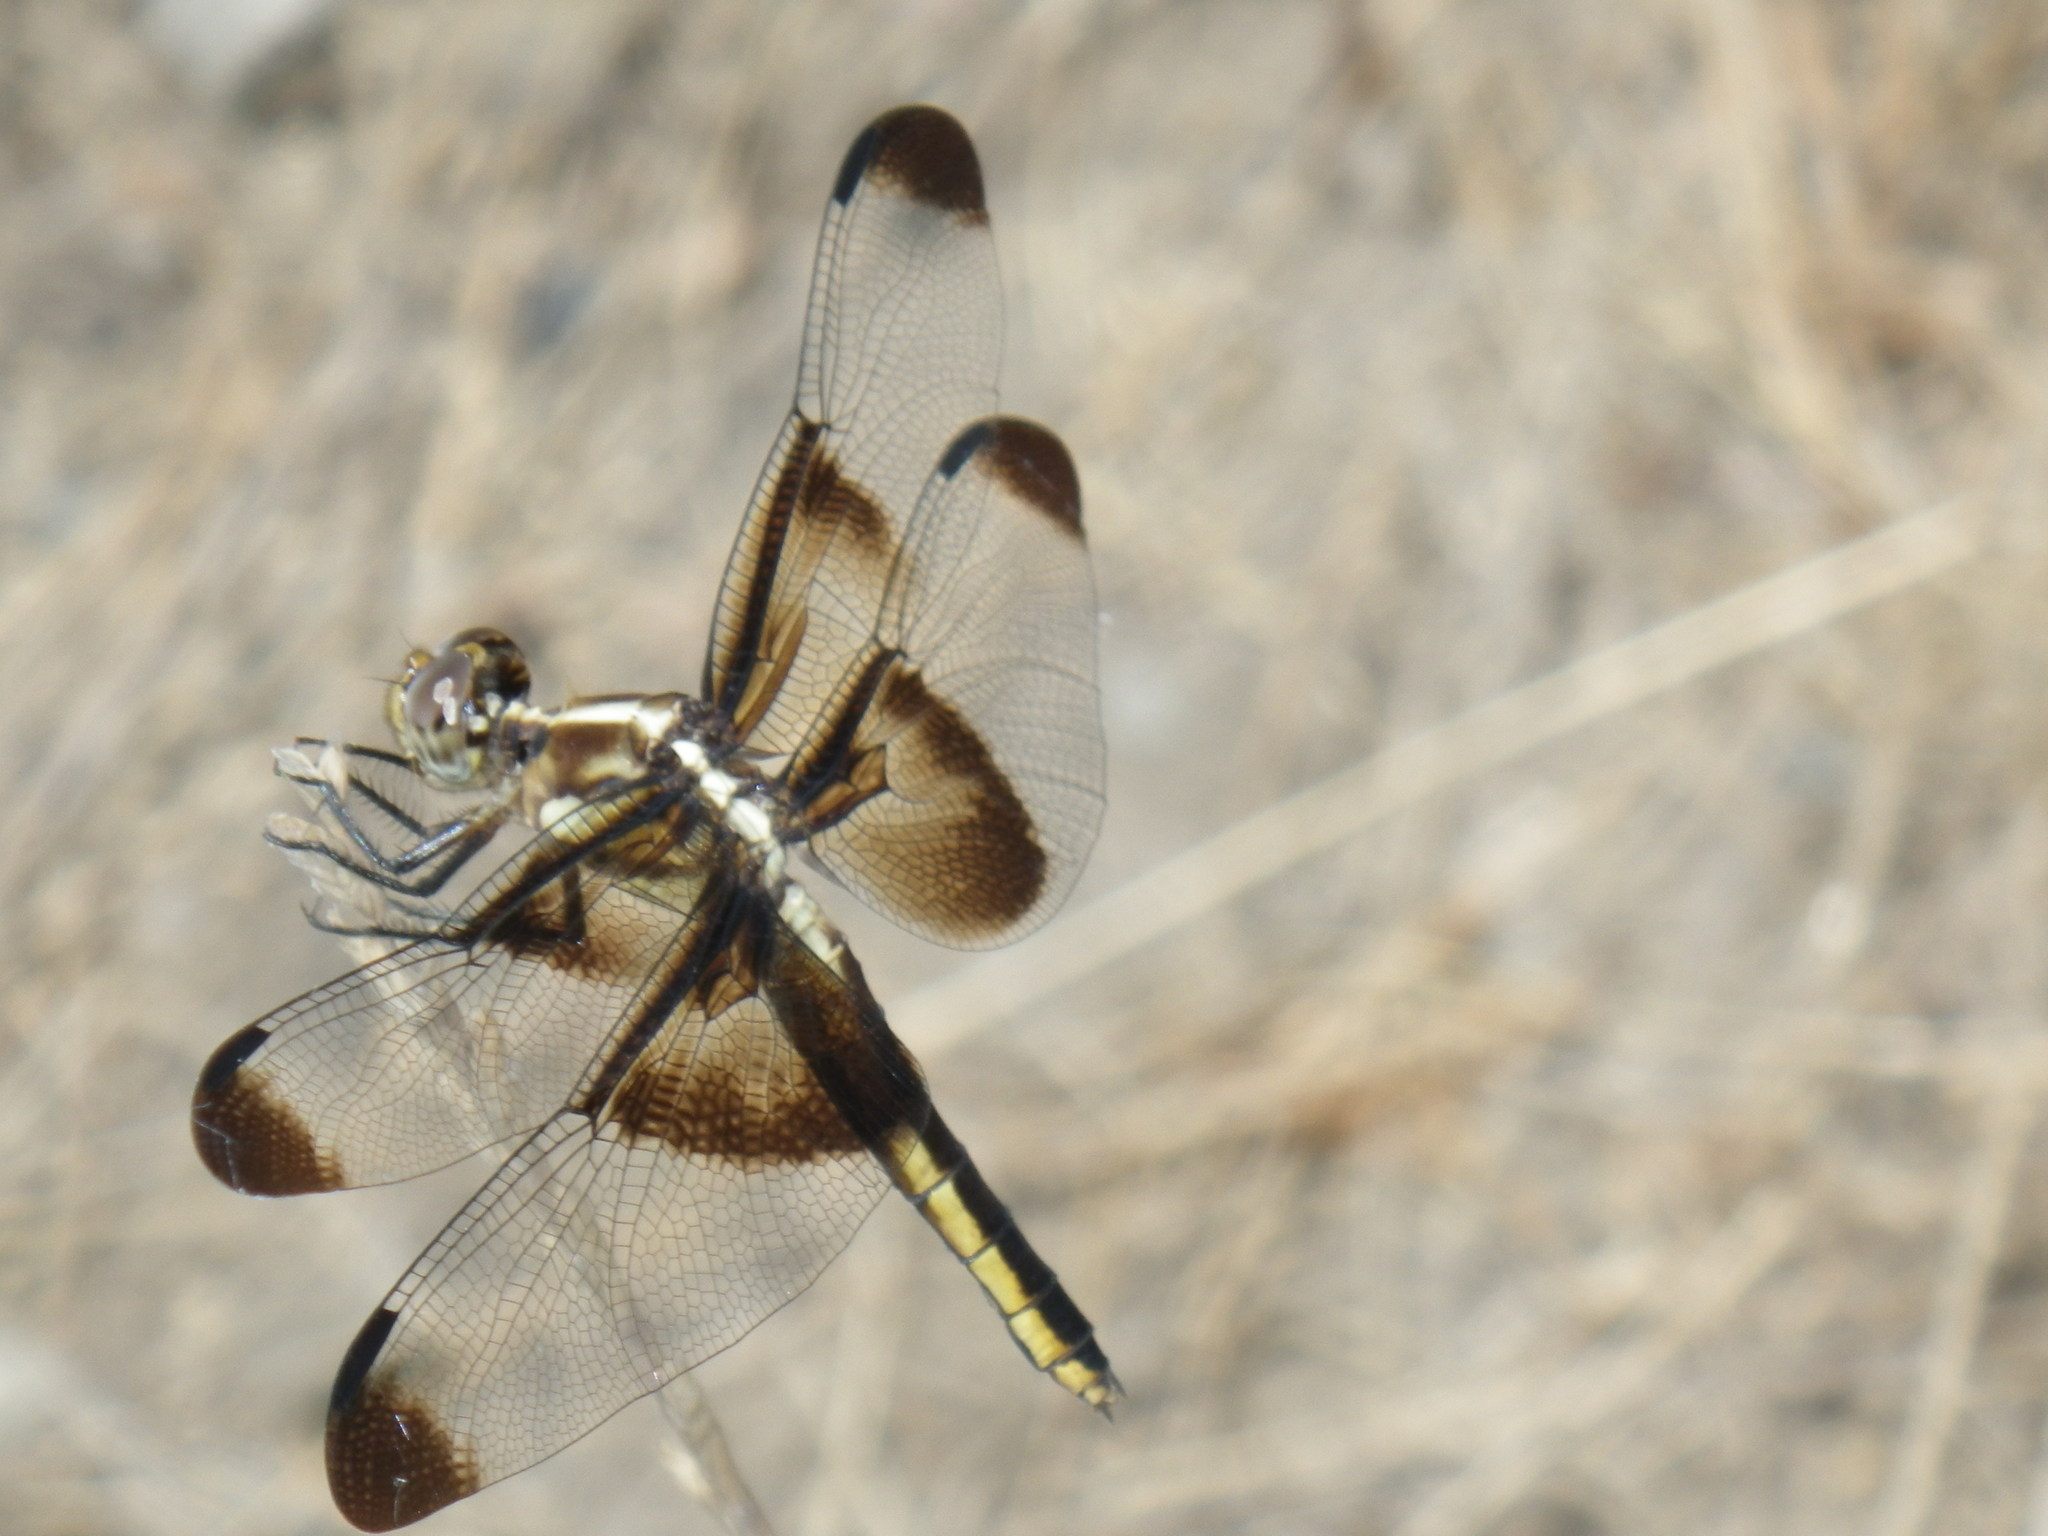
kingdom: Animalia
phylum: Arthropoda
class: Insecta
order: Odonata
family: Libellulidae
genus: Libellula
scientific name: Libellula luctuosa
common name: Widow skimmer
